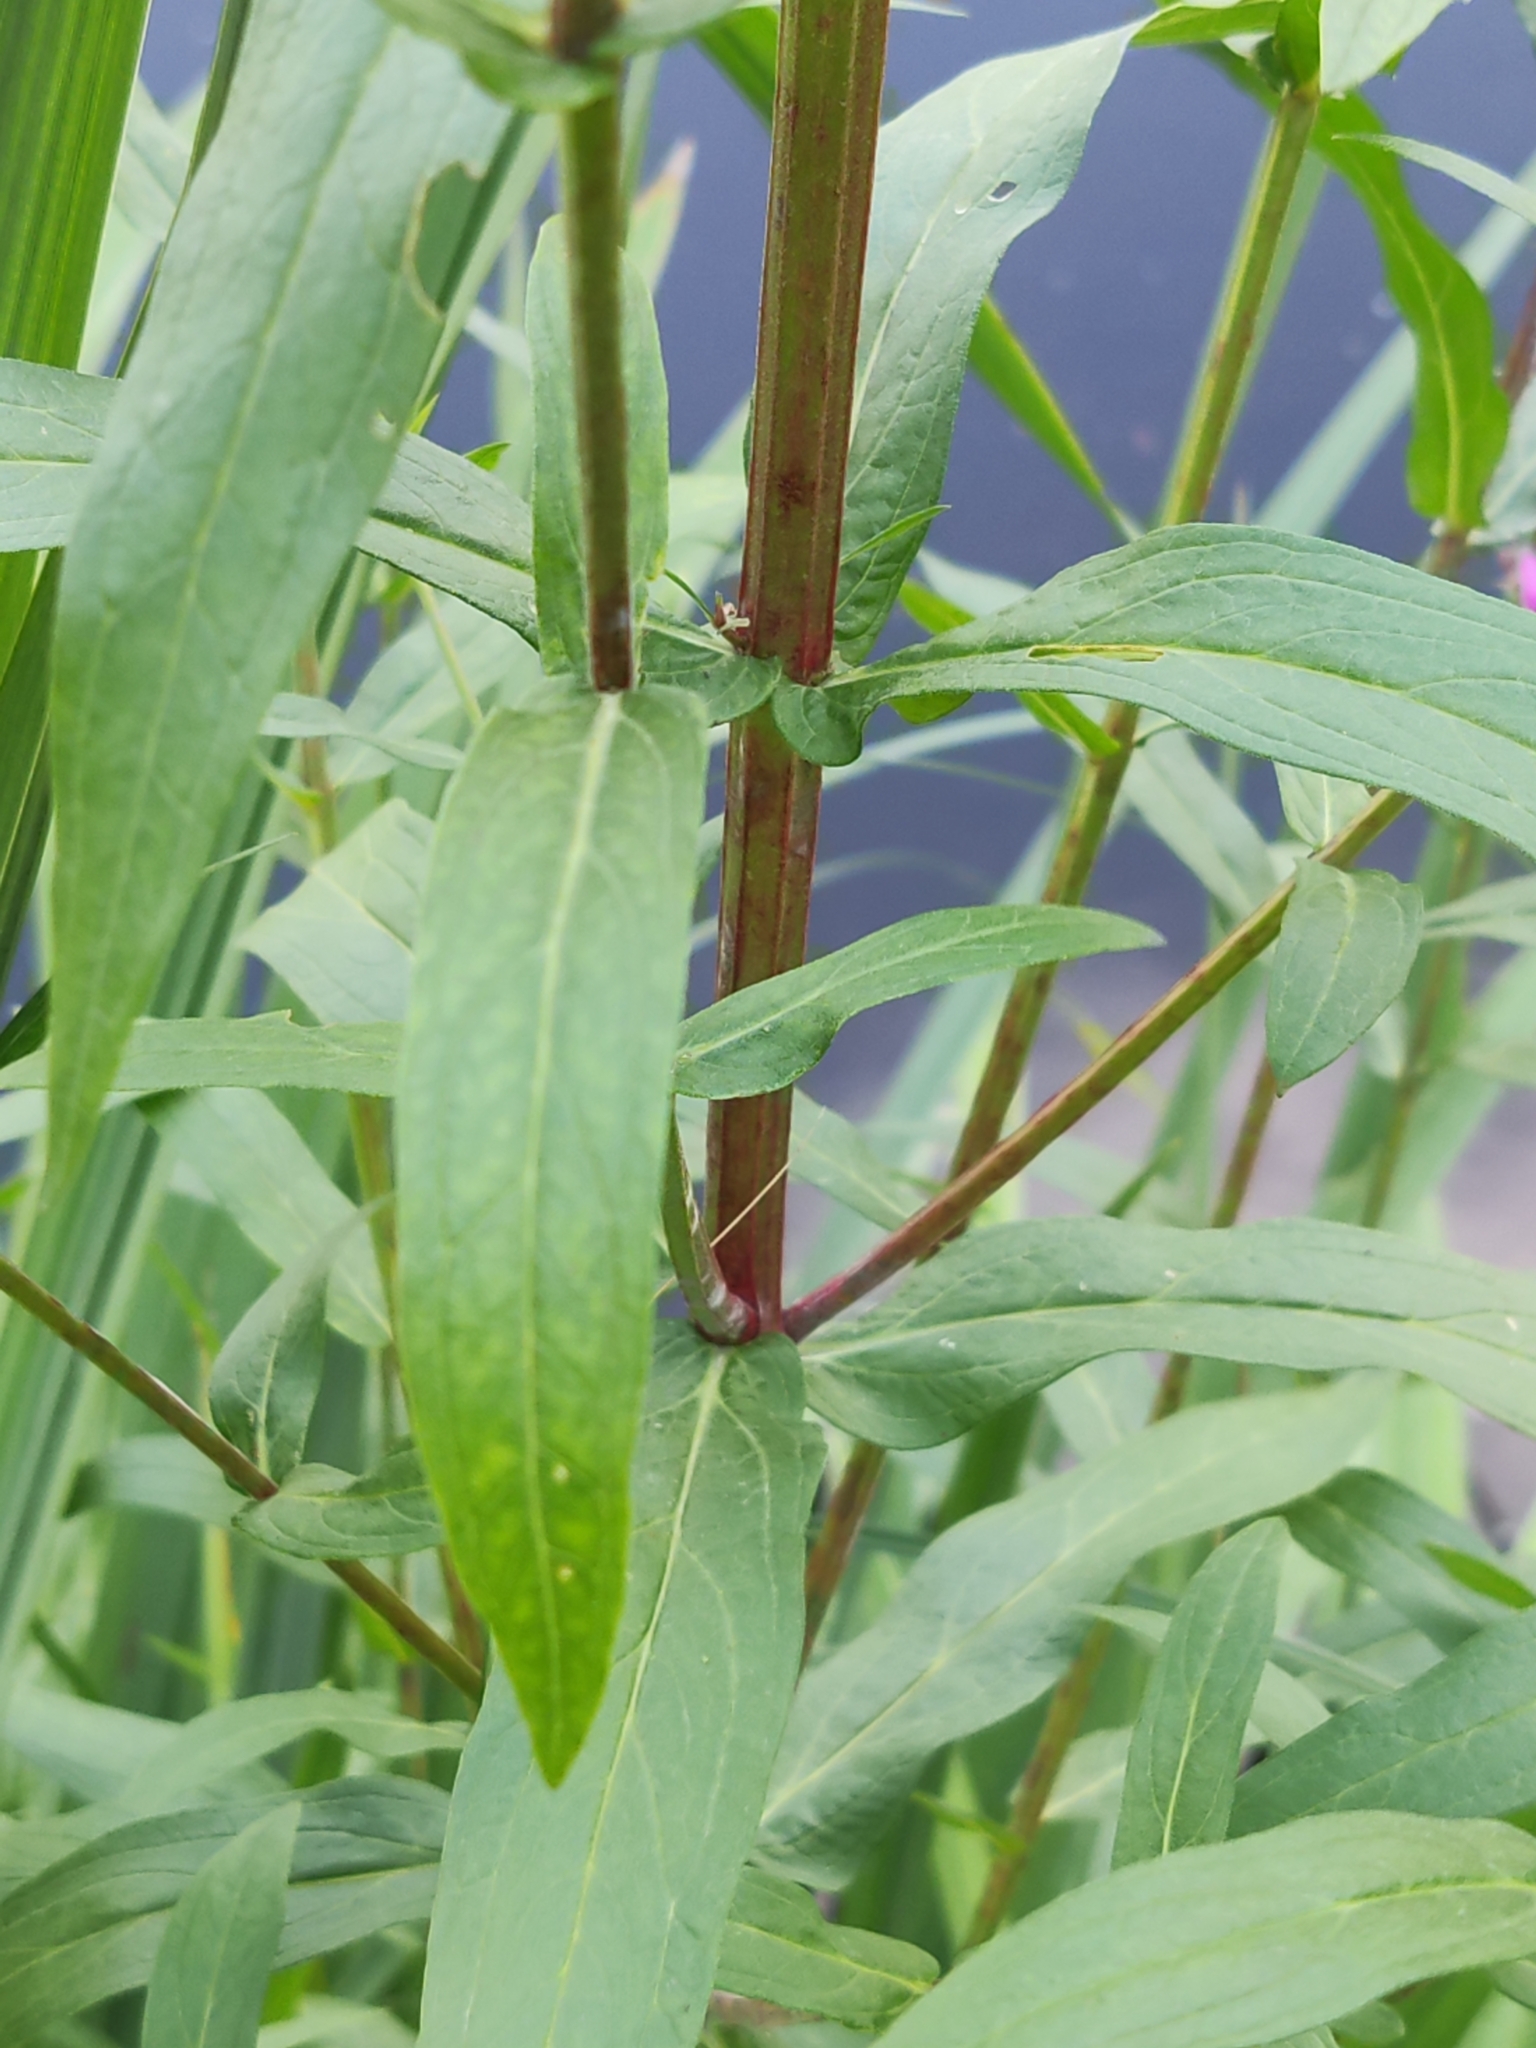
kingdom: Plantae
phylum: Tracheophyta
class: Magnoliopsida
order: Myrtales
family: Lythraceae
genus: Lythrum
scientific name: Lythrum salicaria
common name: Purple loosestrife
